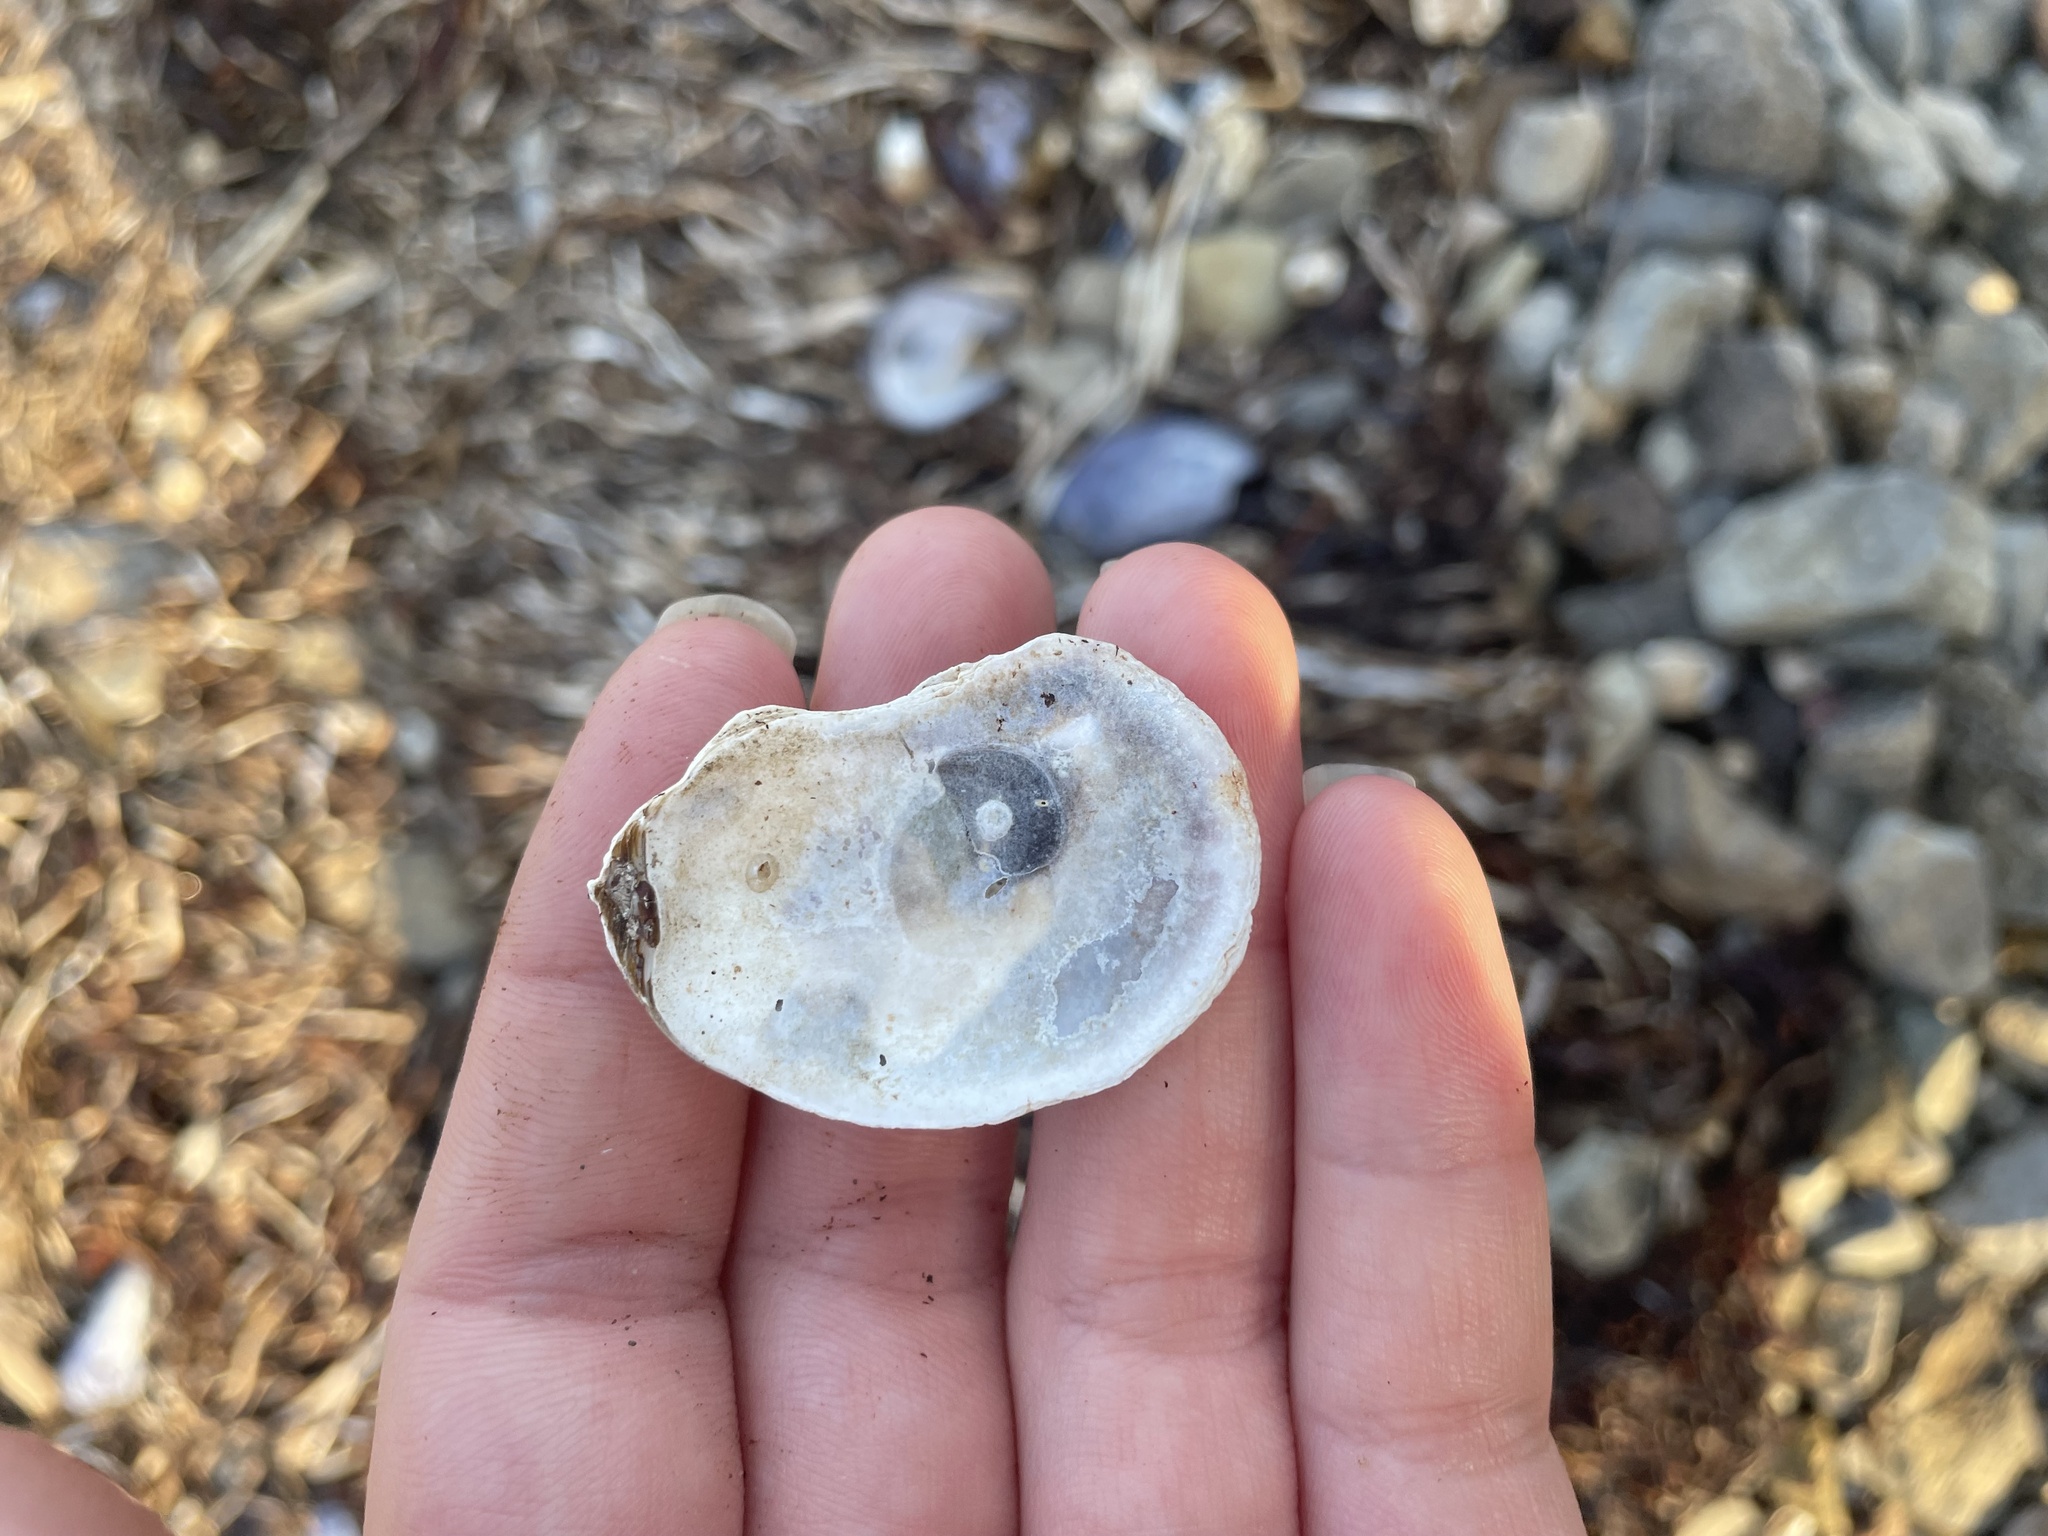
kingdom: Animalia
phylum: Mollusca
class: Bivalvia
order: Ostreida
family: Ostreidae
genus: Crassostrea
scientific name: Crassostrea virginica
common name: American oyster
